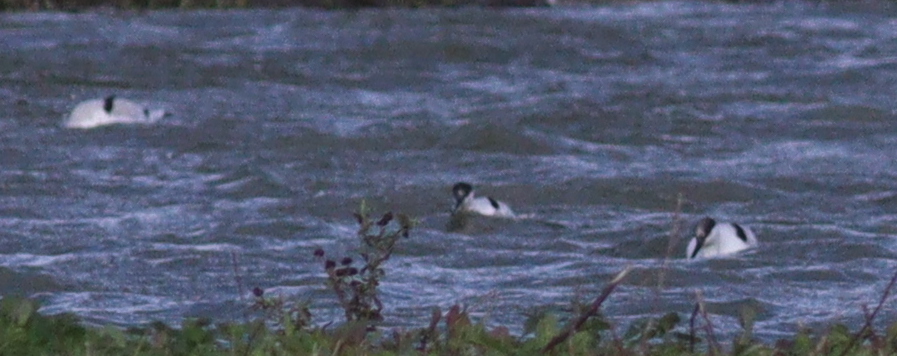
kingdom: Animalia
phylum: Chordata
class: Aves
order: Charadriiformes
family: Recurvirostridae
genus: Recurvirostra
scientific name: Recurvirostra avosetta
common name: Pied avocet
